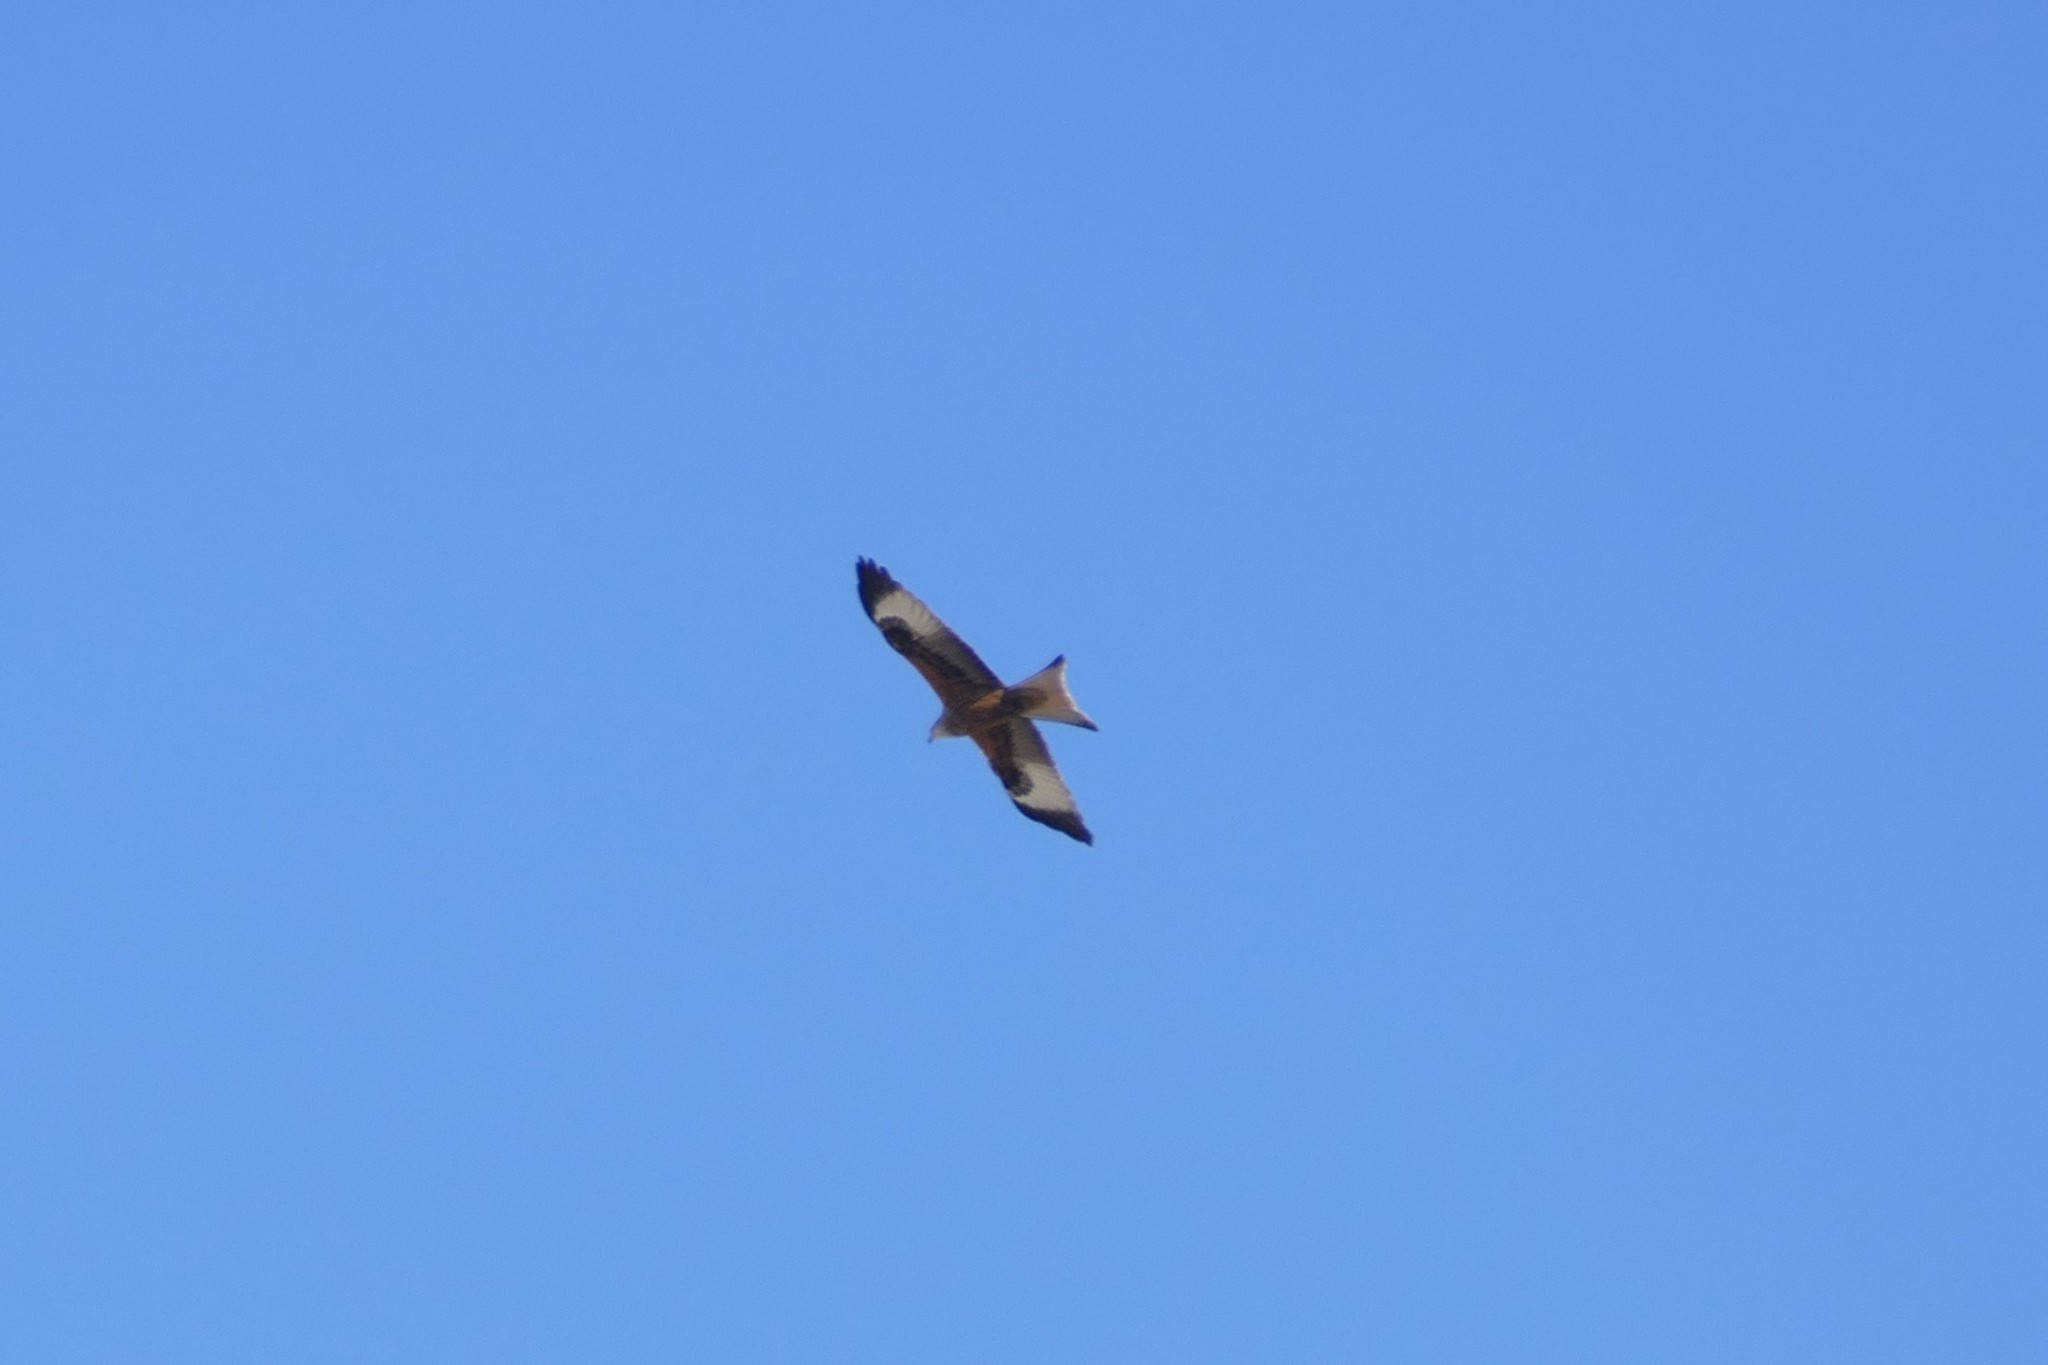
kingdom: Animalia
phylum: Chordata
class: Aves
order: Accipitriformes
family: Accipitridae
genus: Milvus
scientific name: Milvus milvus
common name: Red kite
